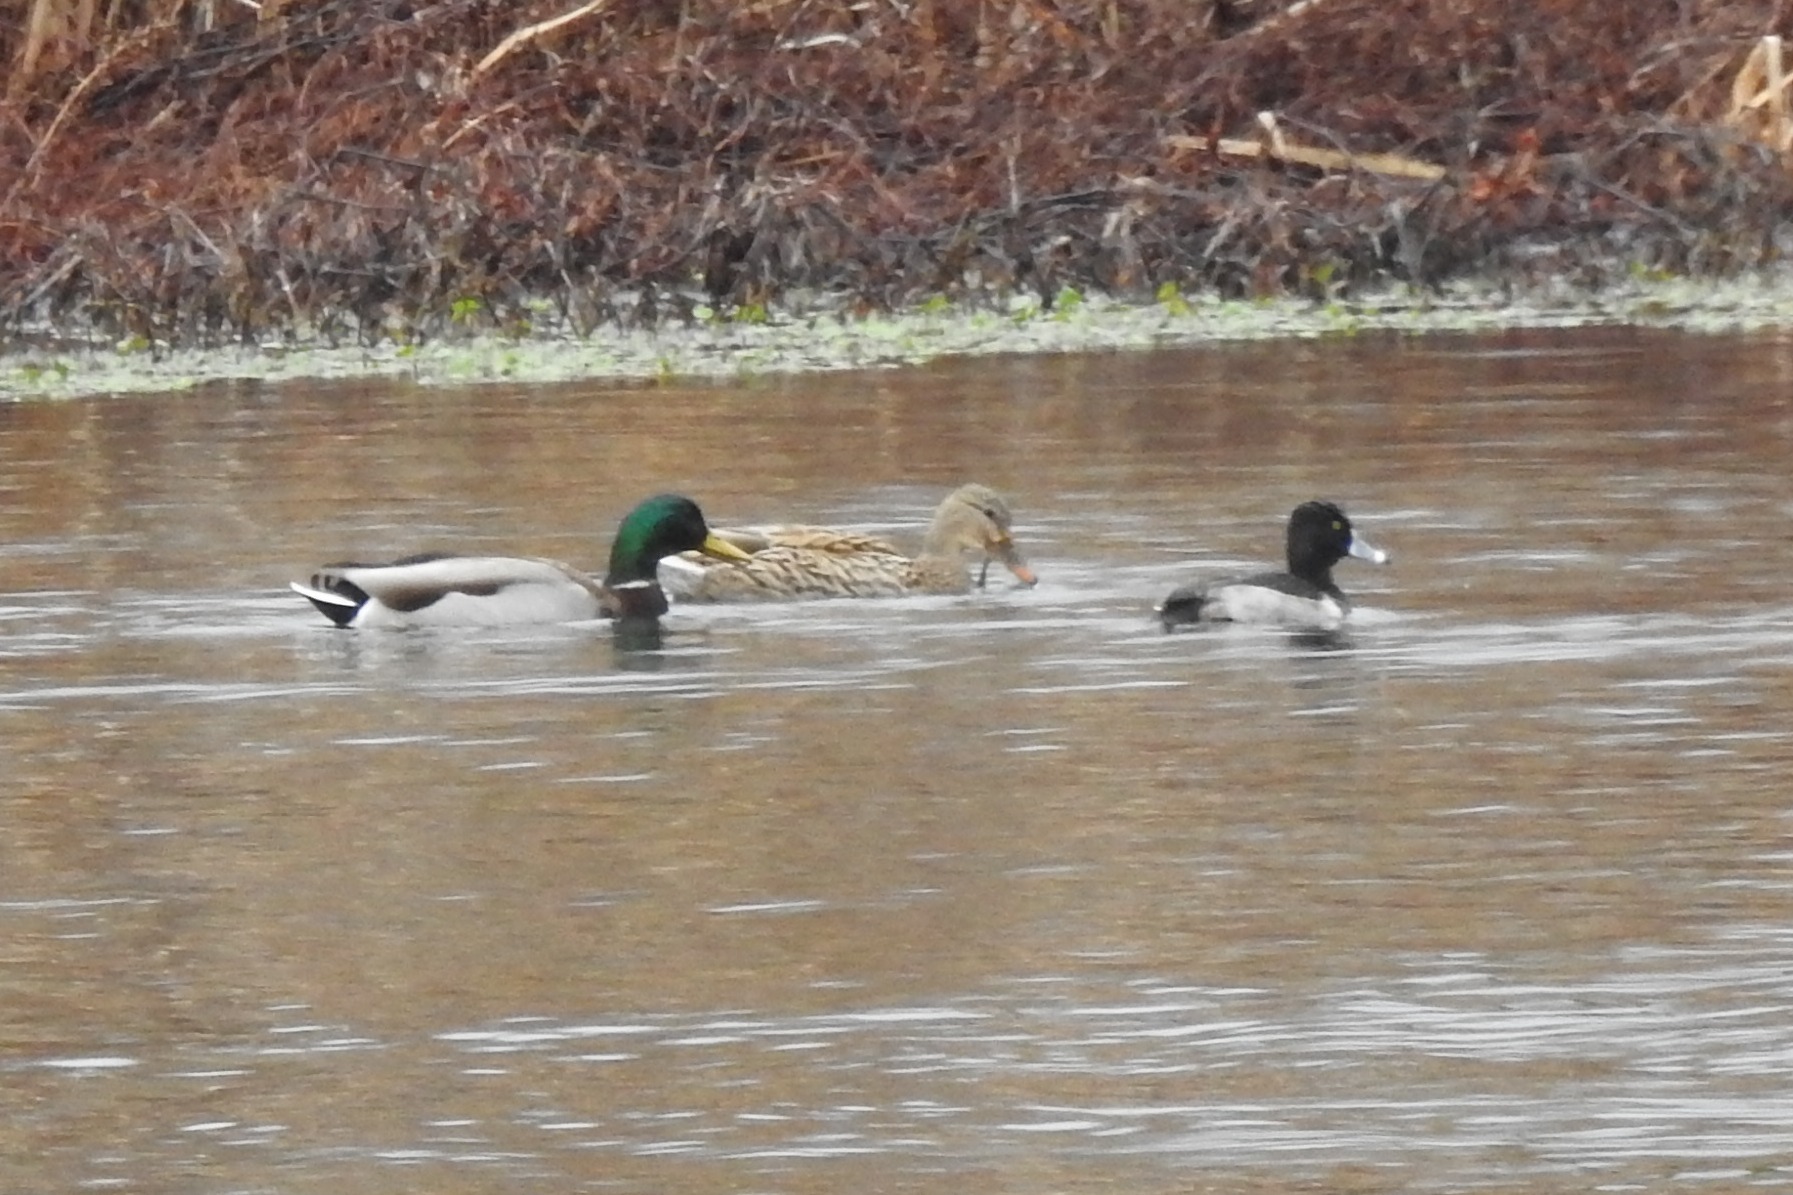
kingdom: Animalia
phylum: Chordata
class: Aves
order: Anseriformes
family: Anatidae
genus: Anas
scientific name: Anas platyrhynchos
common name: Mallard
